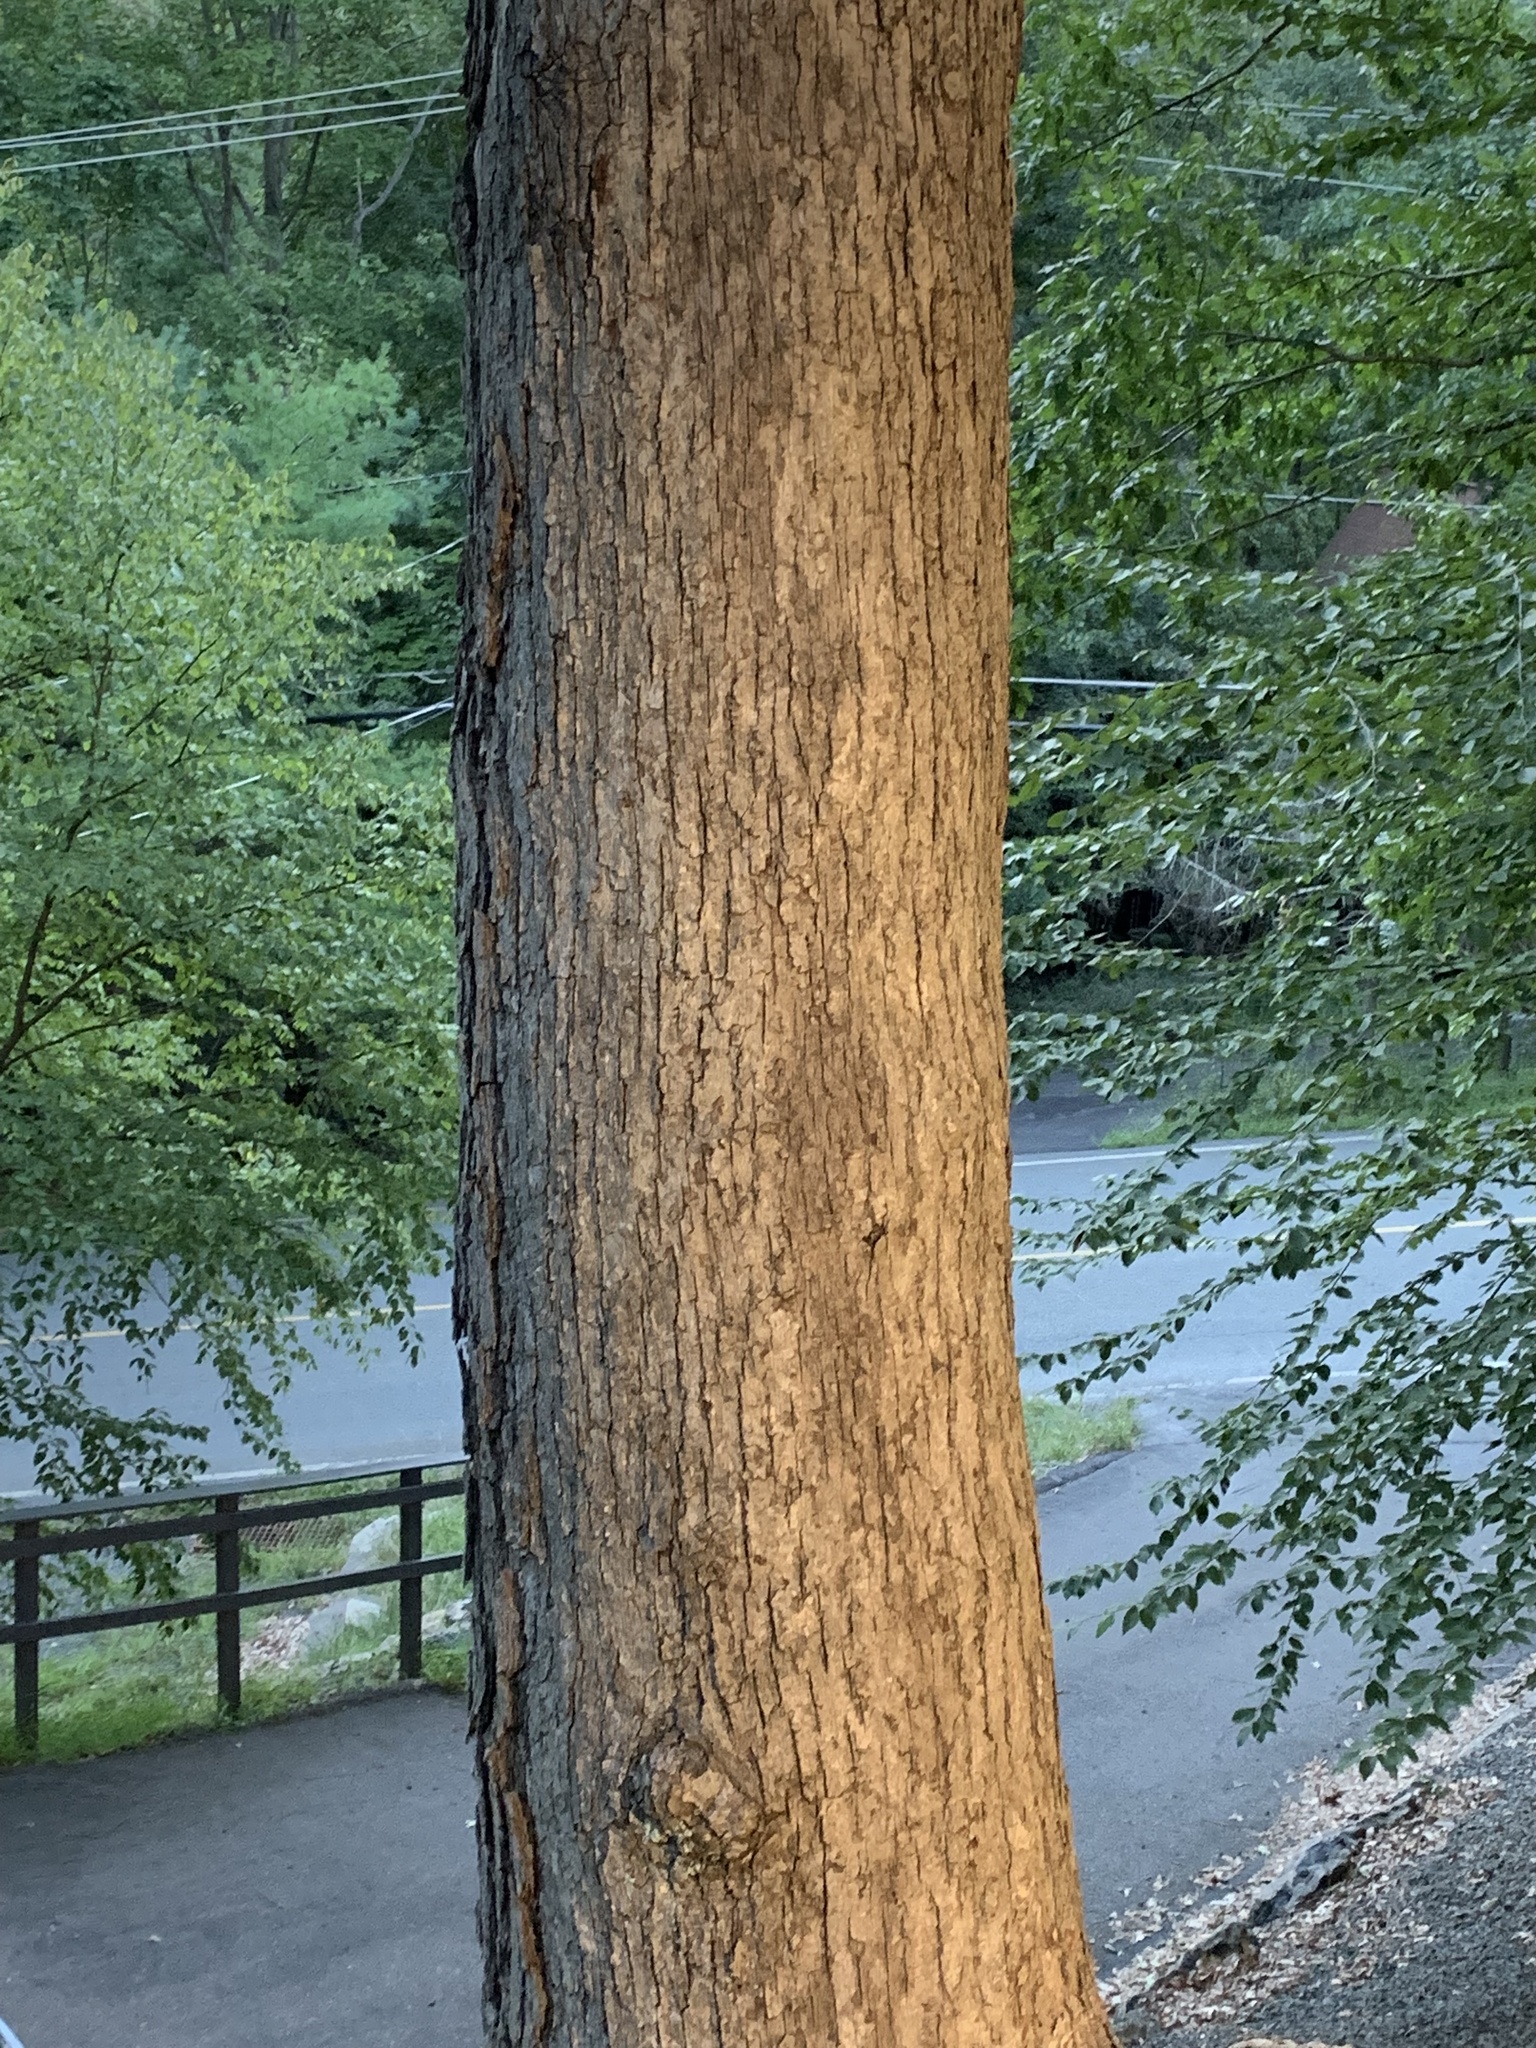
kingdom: Plantae
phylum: Tracheophyta
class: Magnoliopsida
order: Fagales
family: Fagaceae
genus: Quercus
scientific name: Quercus alba
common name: White oak
